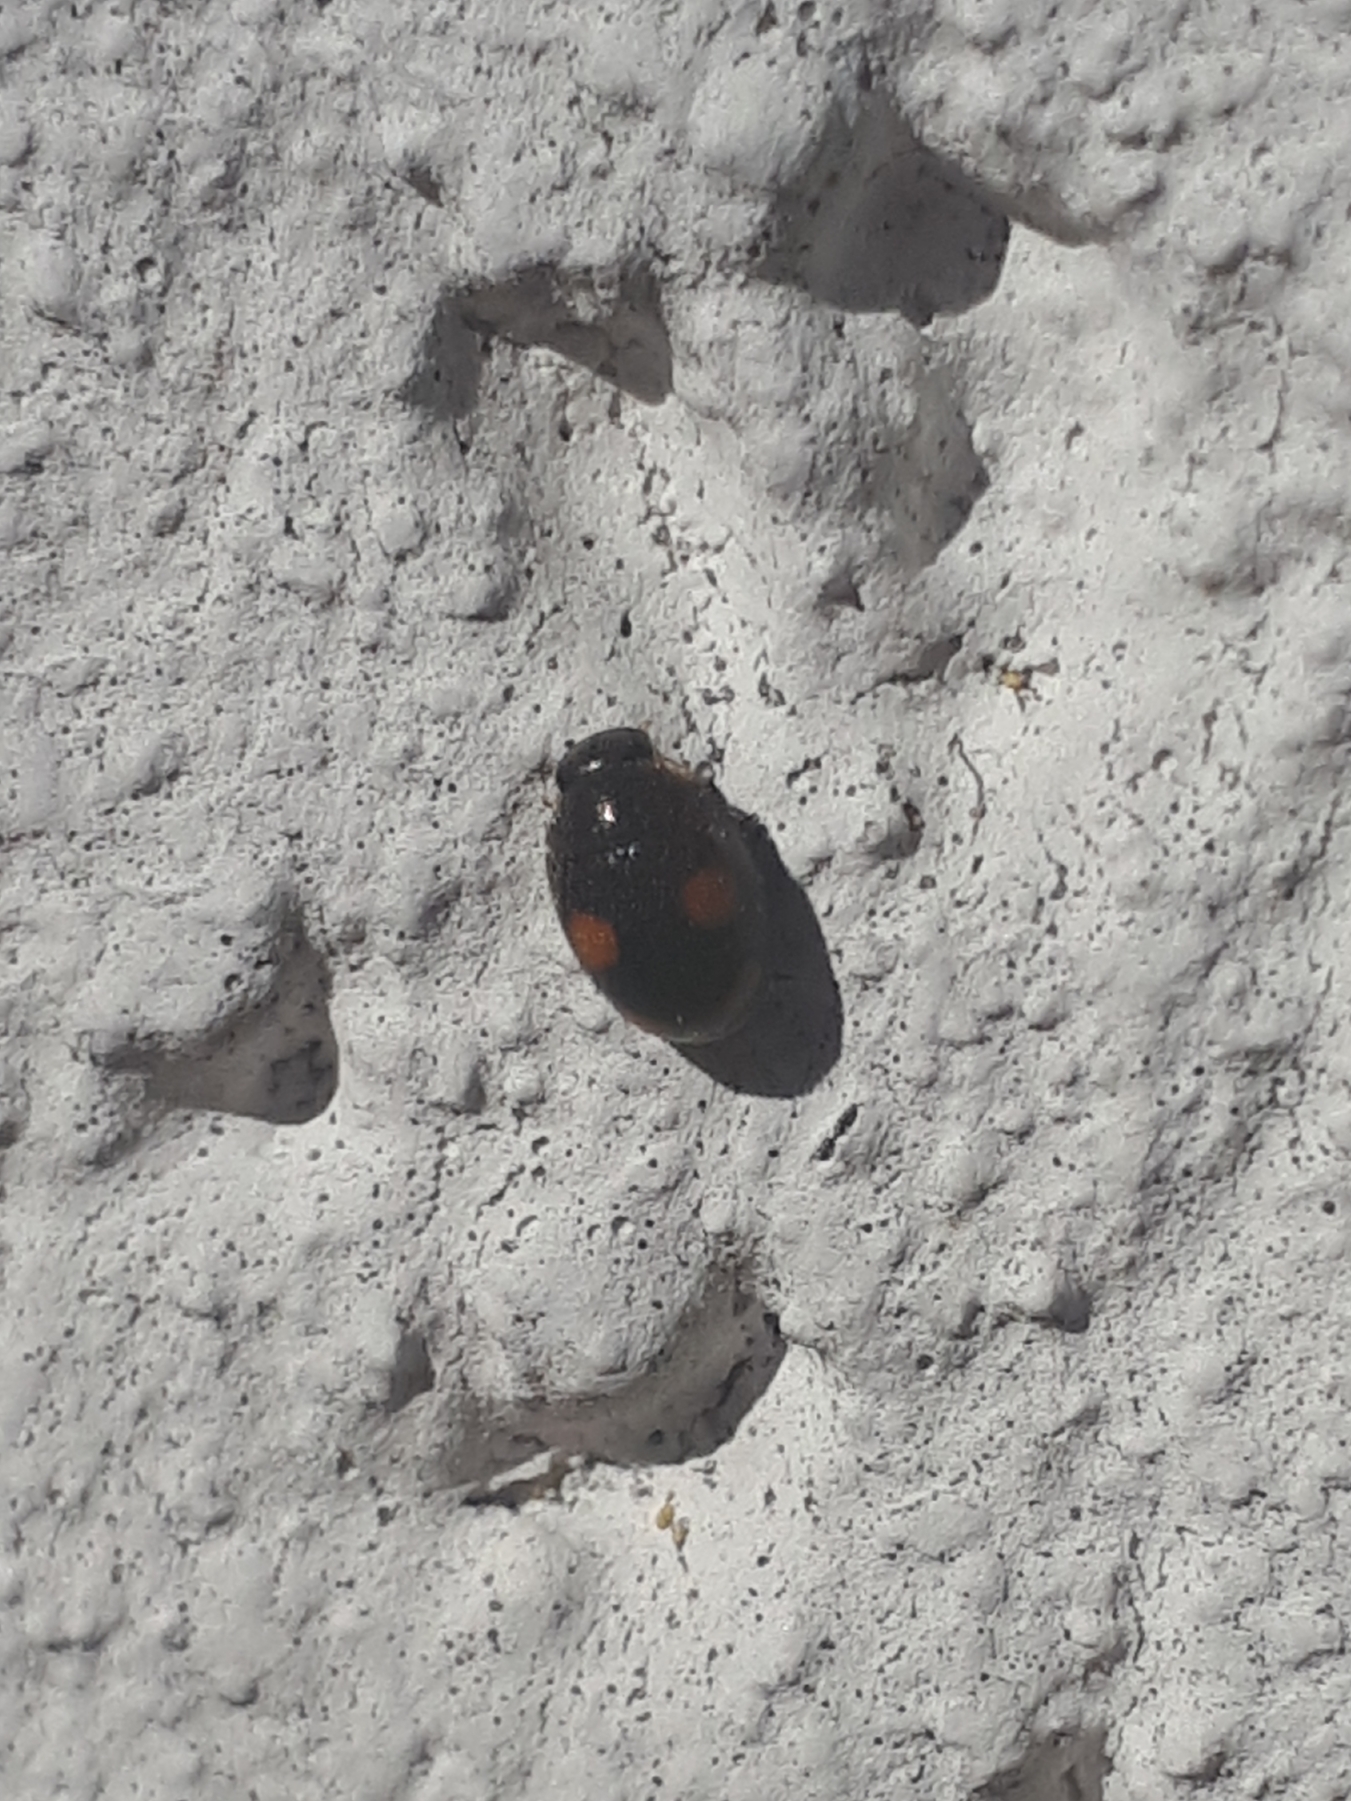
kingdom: Animalia
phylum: Arthropoda
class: Insecta
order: Coleoptera
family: Coccinellidae
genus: Platynaspis
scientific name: Platynaspis luteorubra
